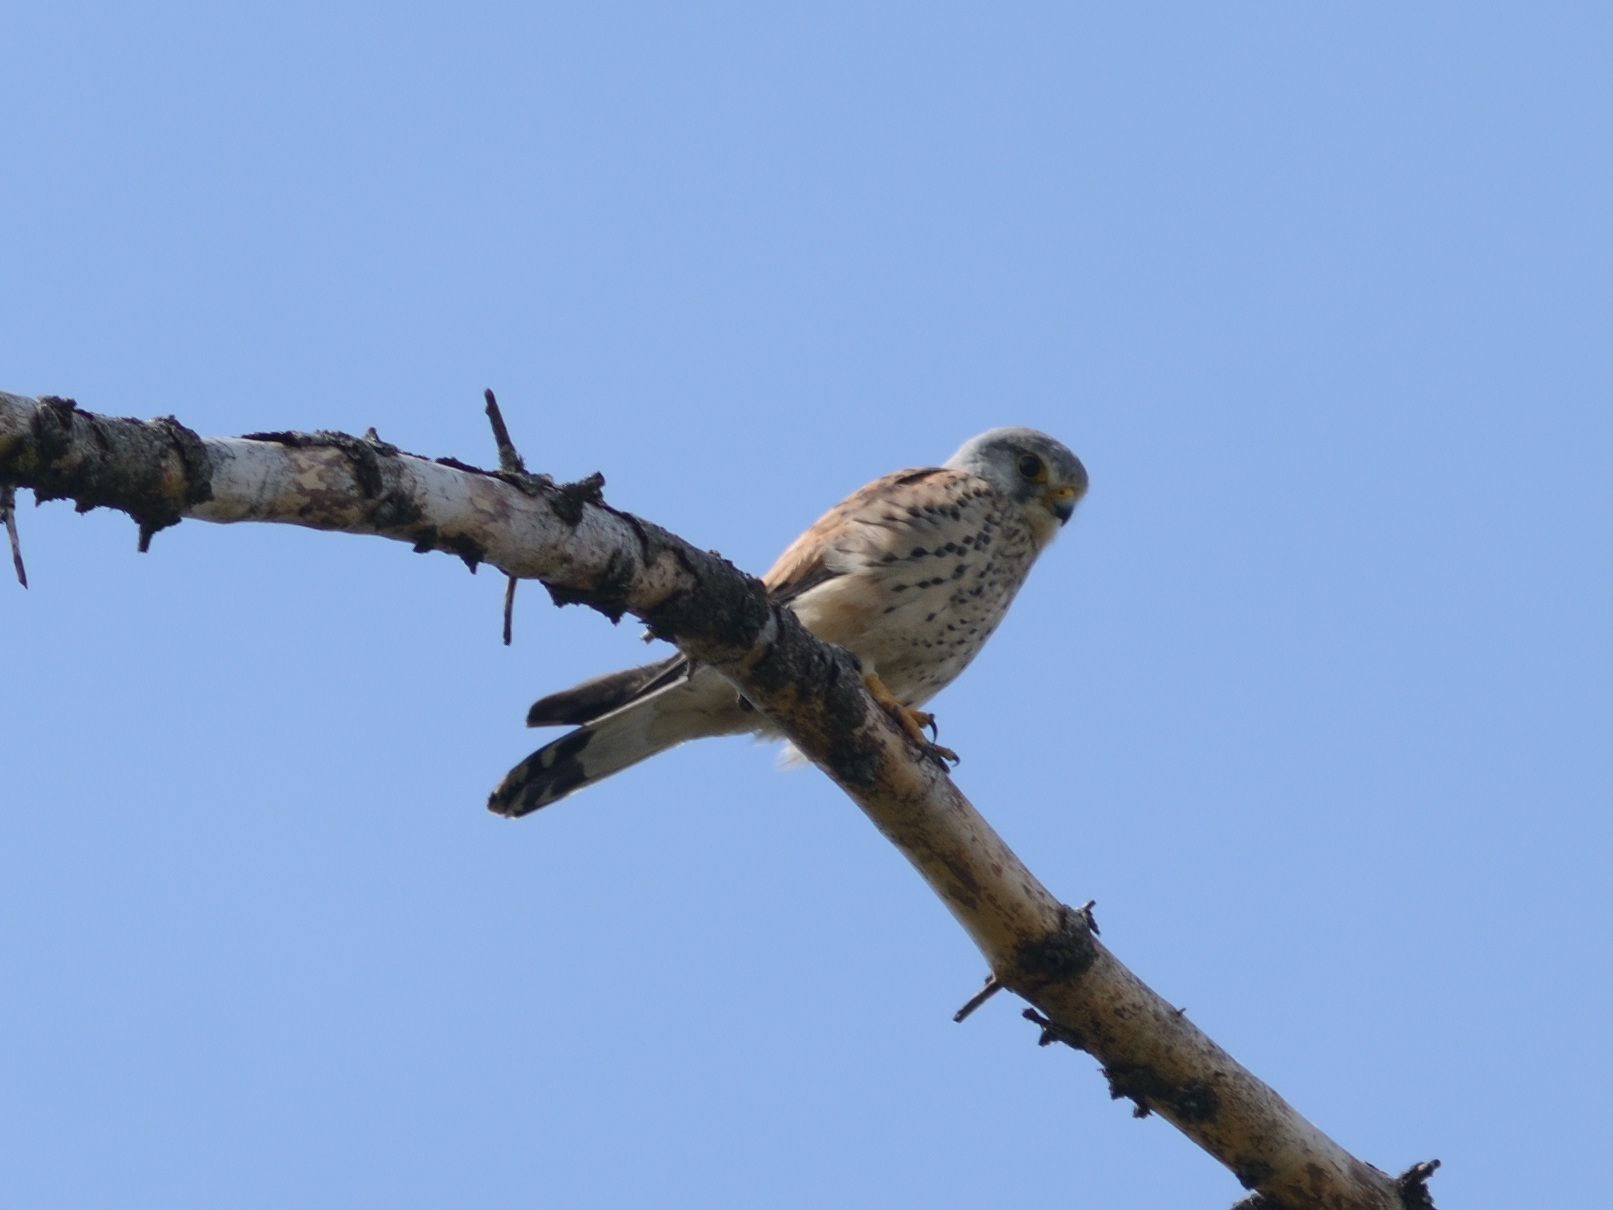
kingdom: Animalia
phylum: Chordata
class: Aves
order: Falconiformes
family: Falconidae
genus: Falco
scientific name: Falco tinnunculus
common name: Common kestrel
